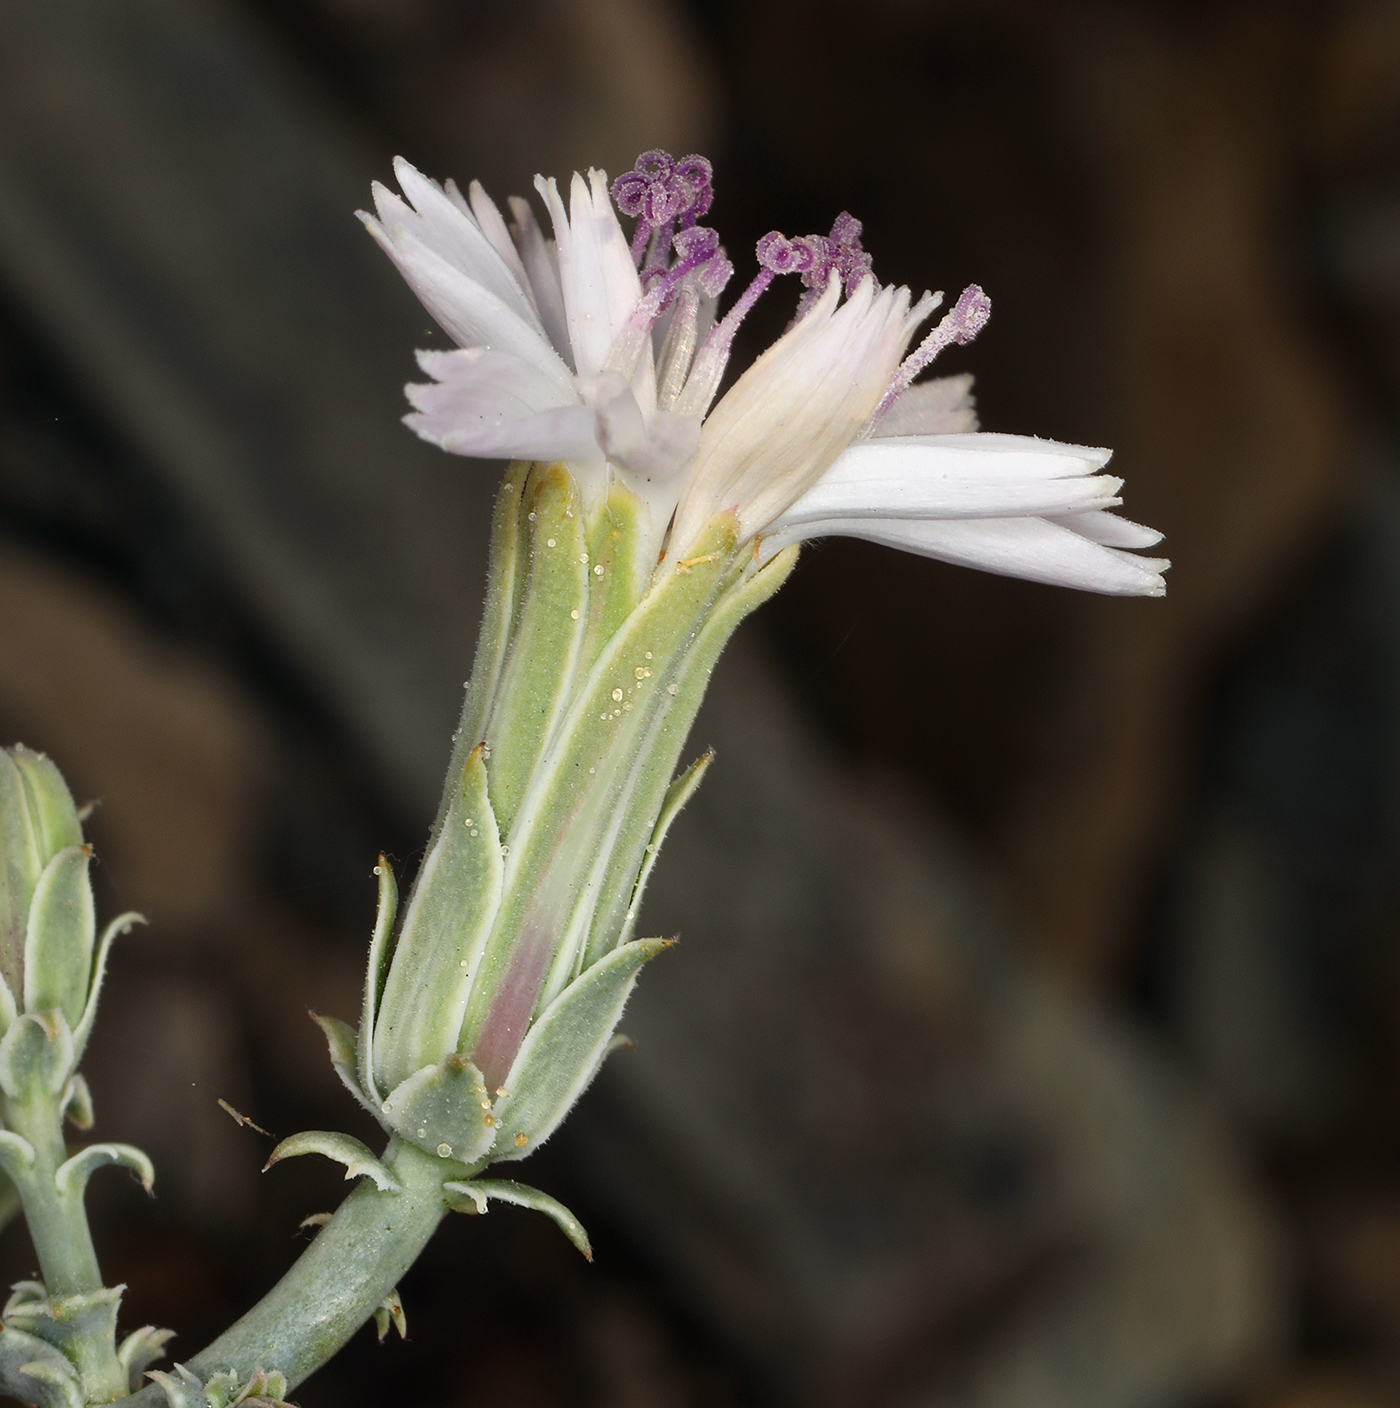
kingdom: Plantae
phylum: Tracheophyta
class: Magnoliopsida
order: Asterales
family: Asteraceae
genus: Stephanomeria
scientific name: Stephanomeria parryi
